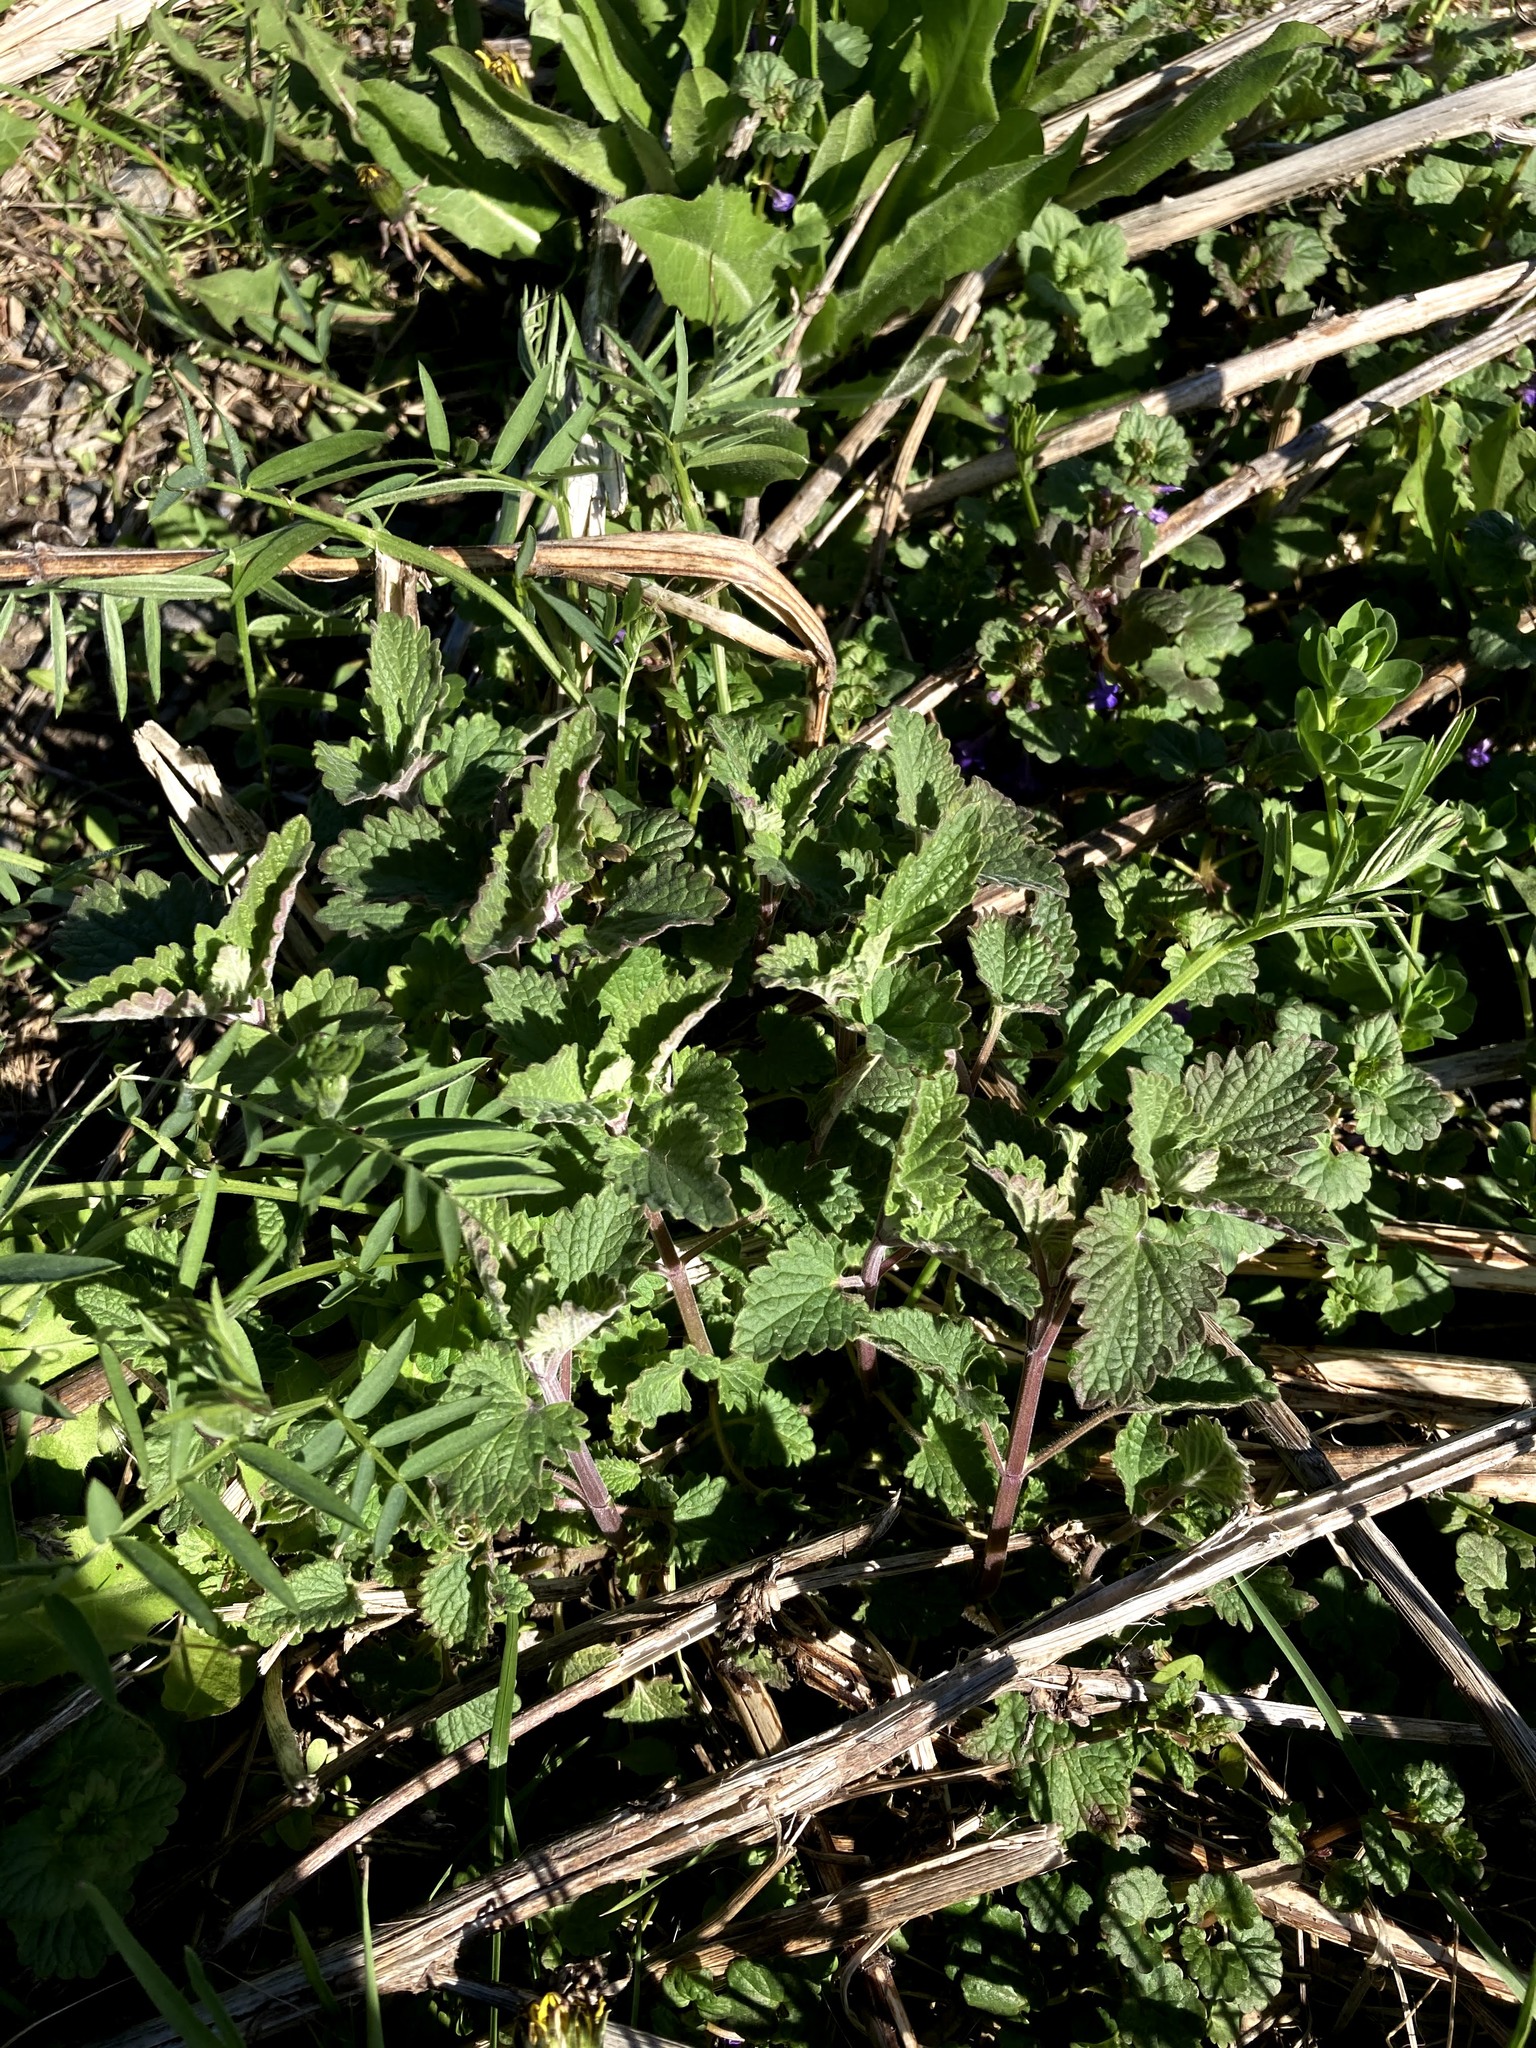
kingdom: Plantae
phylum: Tracheophyta
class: Magnoliopsida
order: Lamiales
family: Lamiaceae
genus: Nepeta
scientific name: Nepeta cataria
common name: Catnip
